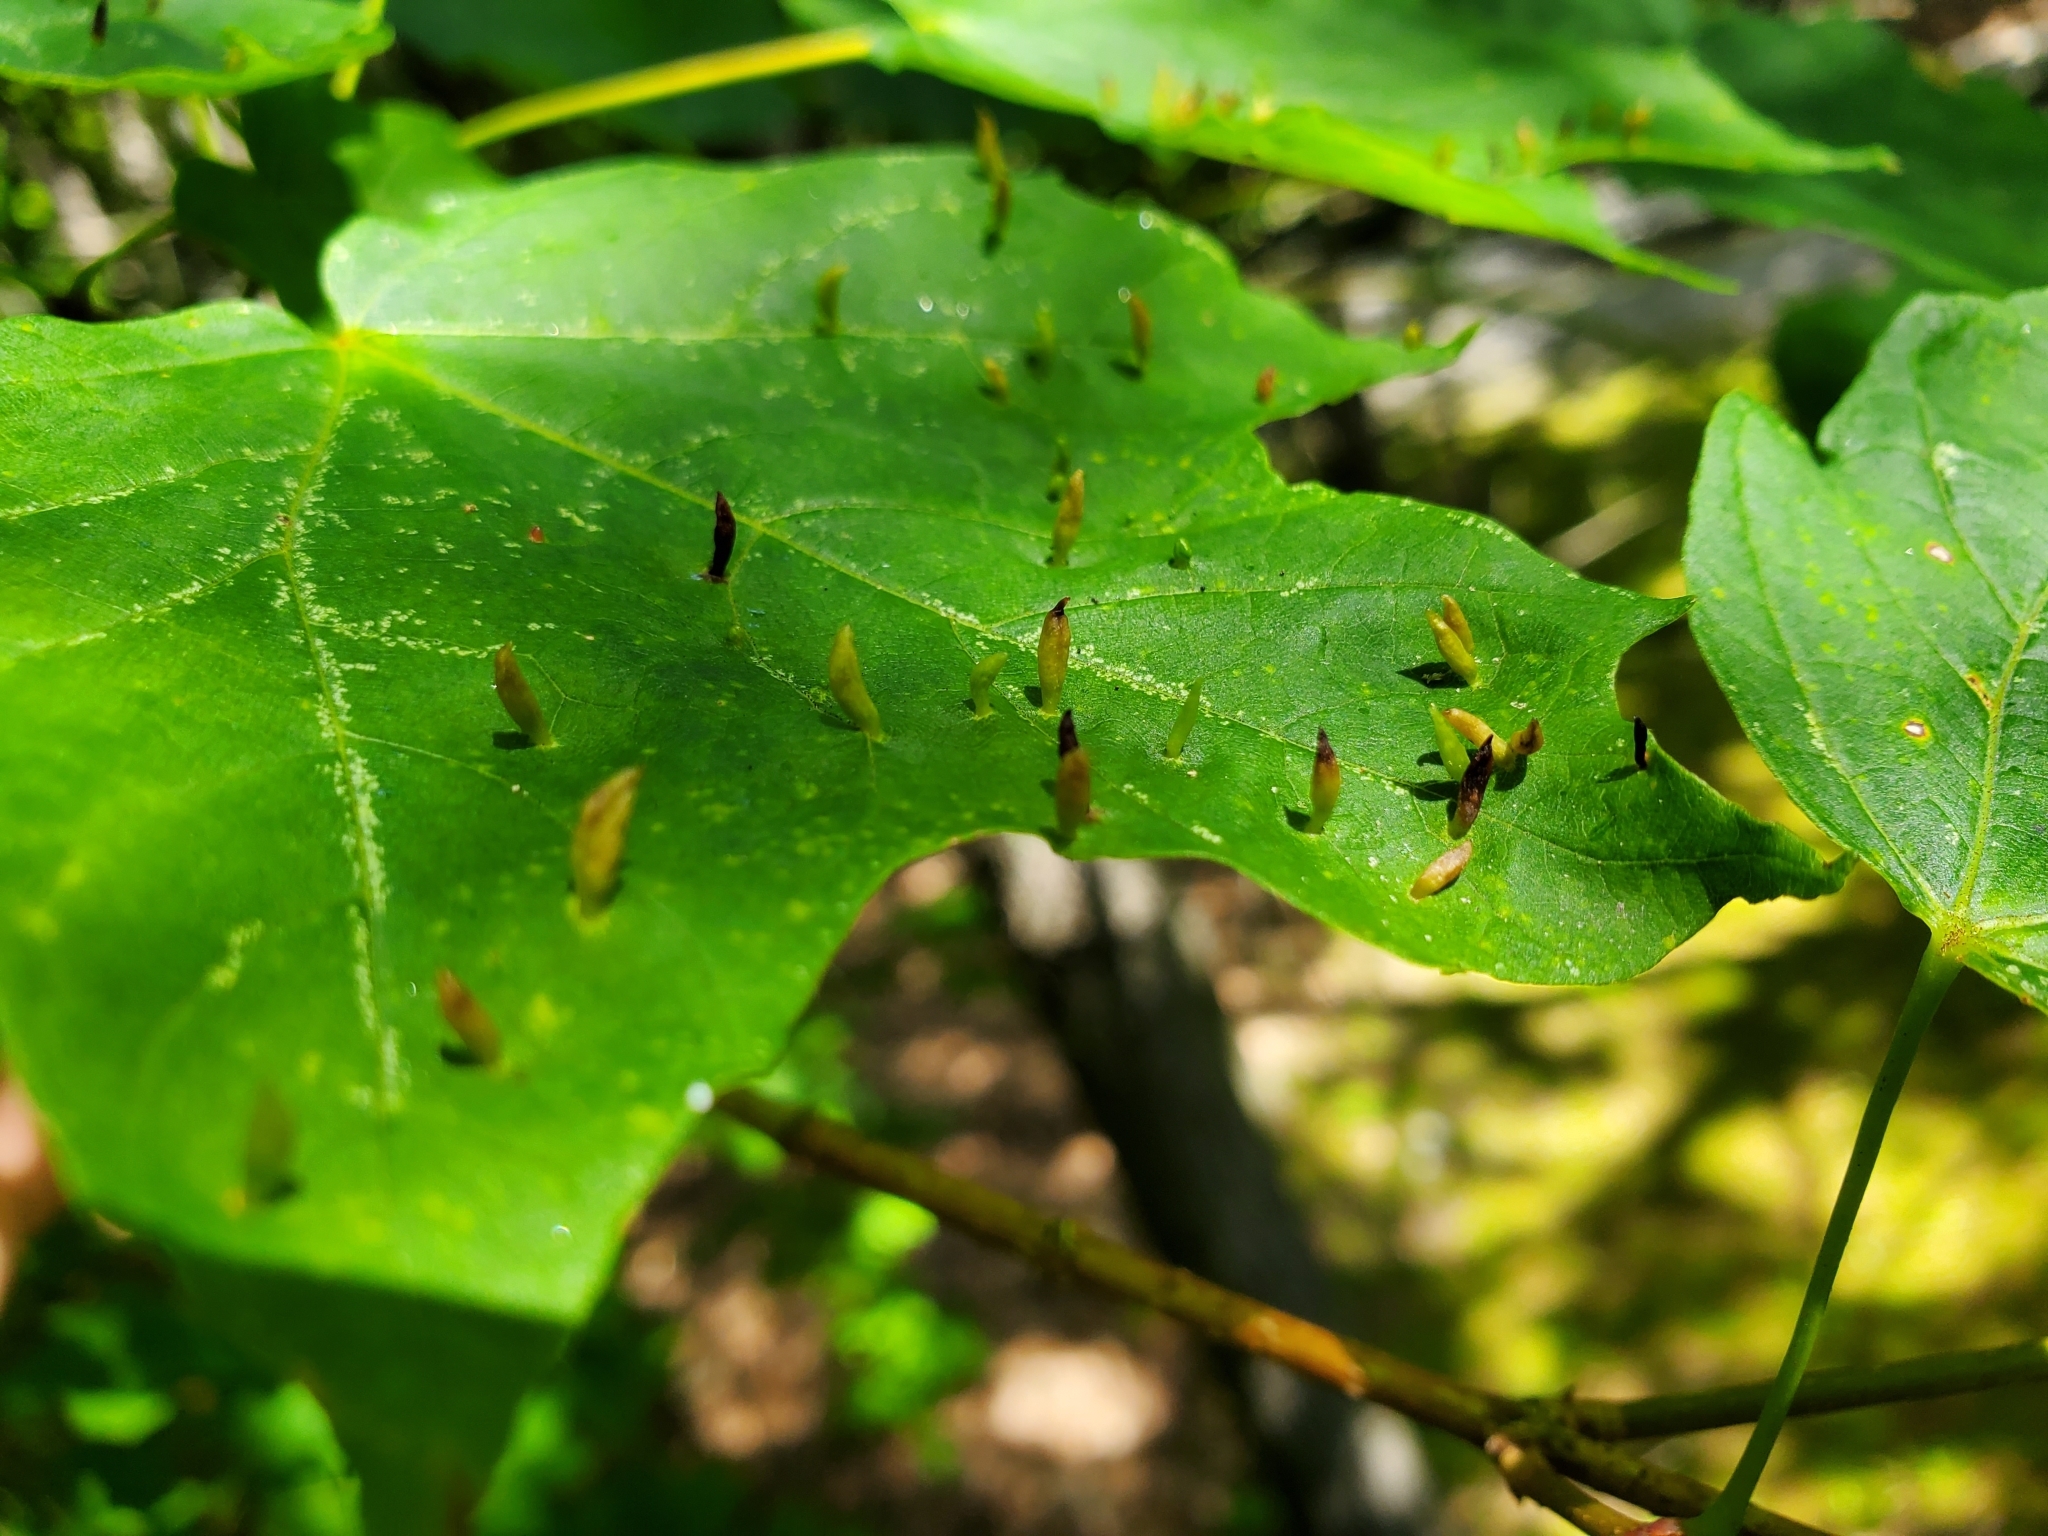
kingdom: Animalia
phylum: Arthropoda
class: Arachnida
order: Trombidiformes
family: Eriophyidae
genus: Vasates
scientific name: Vasates aceriscrumena
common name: Maple spindle gall mite
